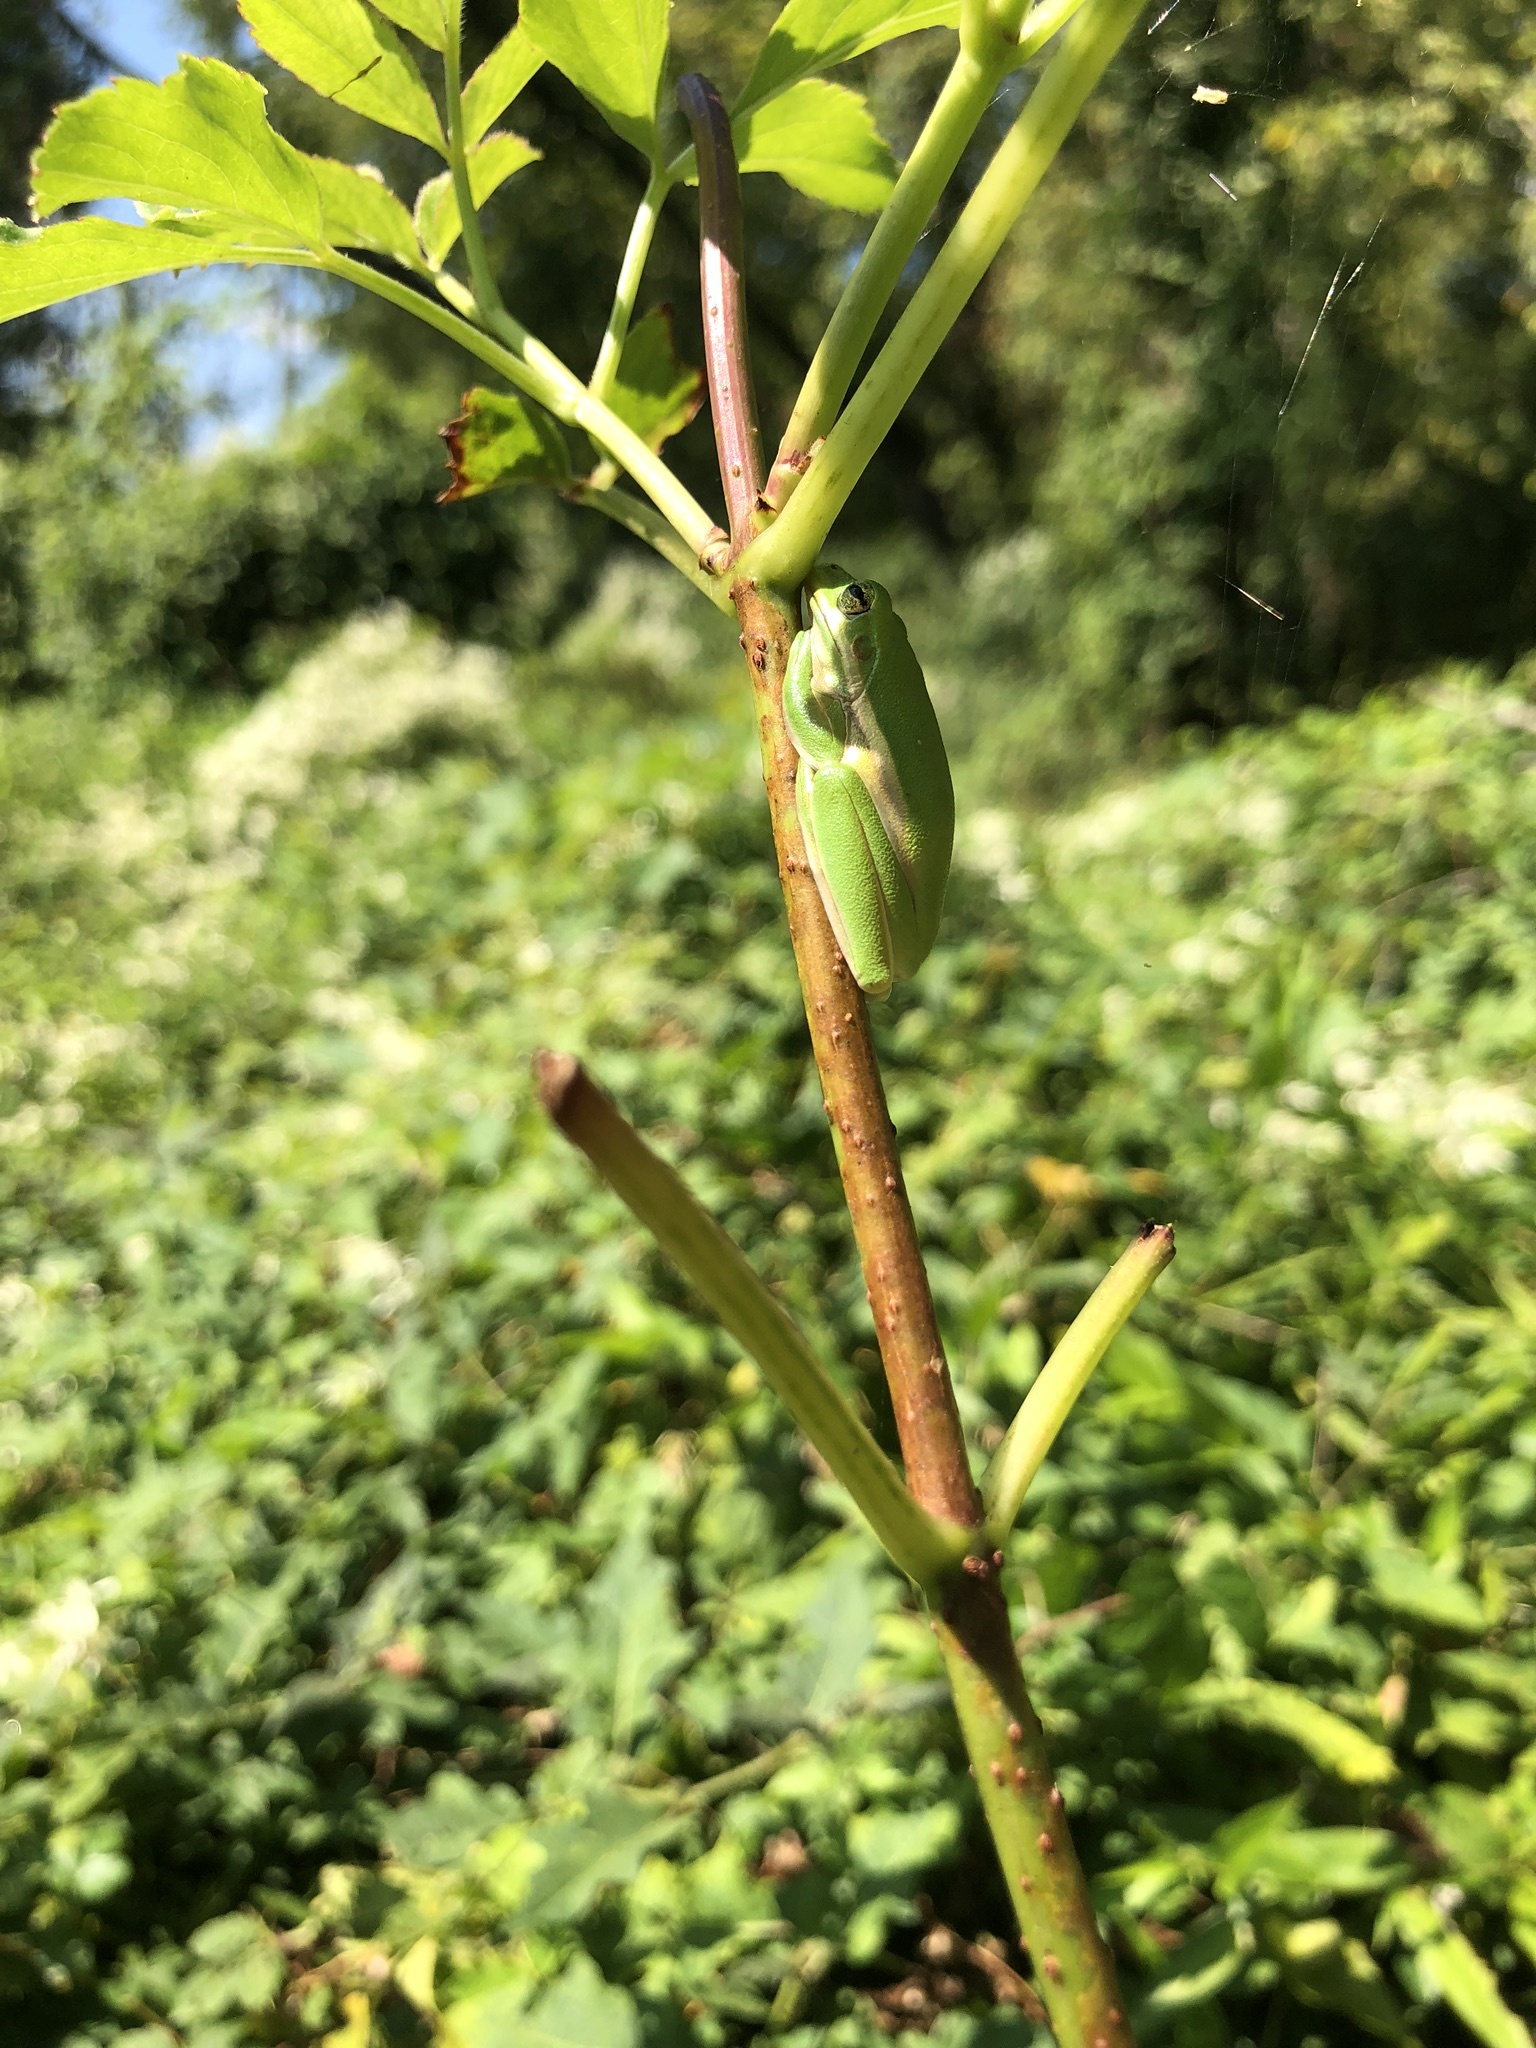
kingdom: Animalia
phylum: Chordata
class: Amphibia
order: Anura
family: Hylidae
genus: Dryophytes
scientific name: Dryophytes cinereus
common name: Green treefrog
